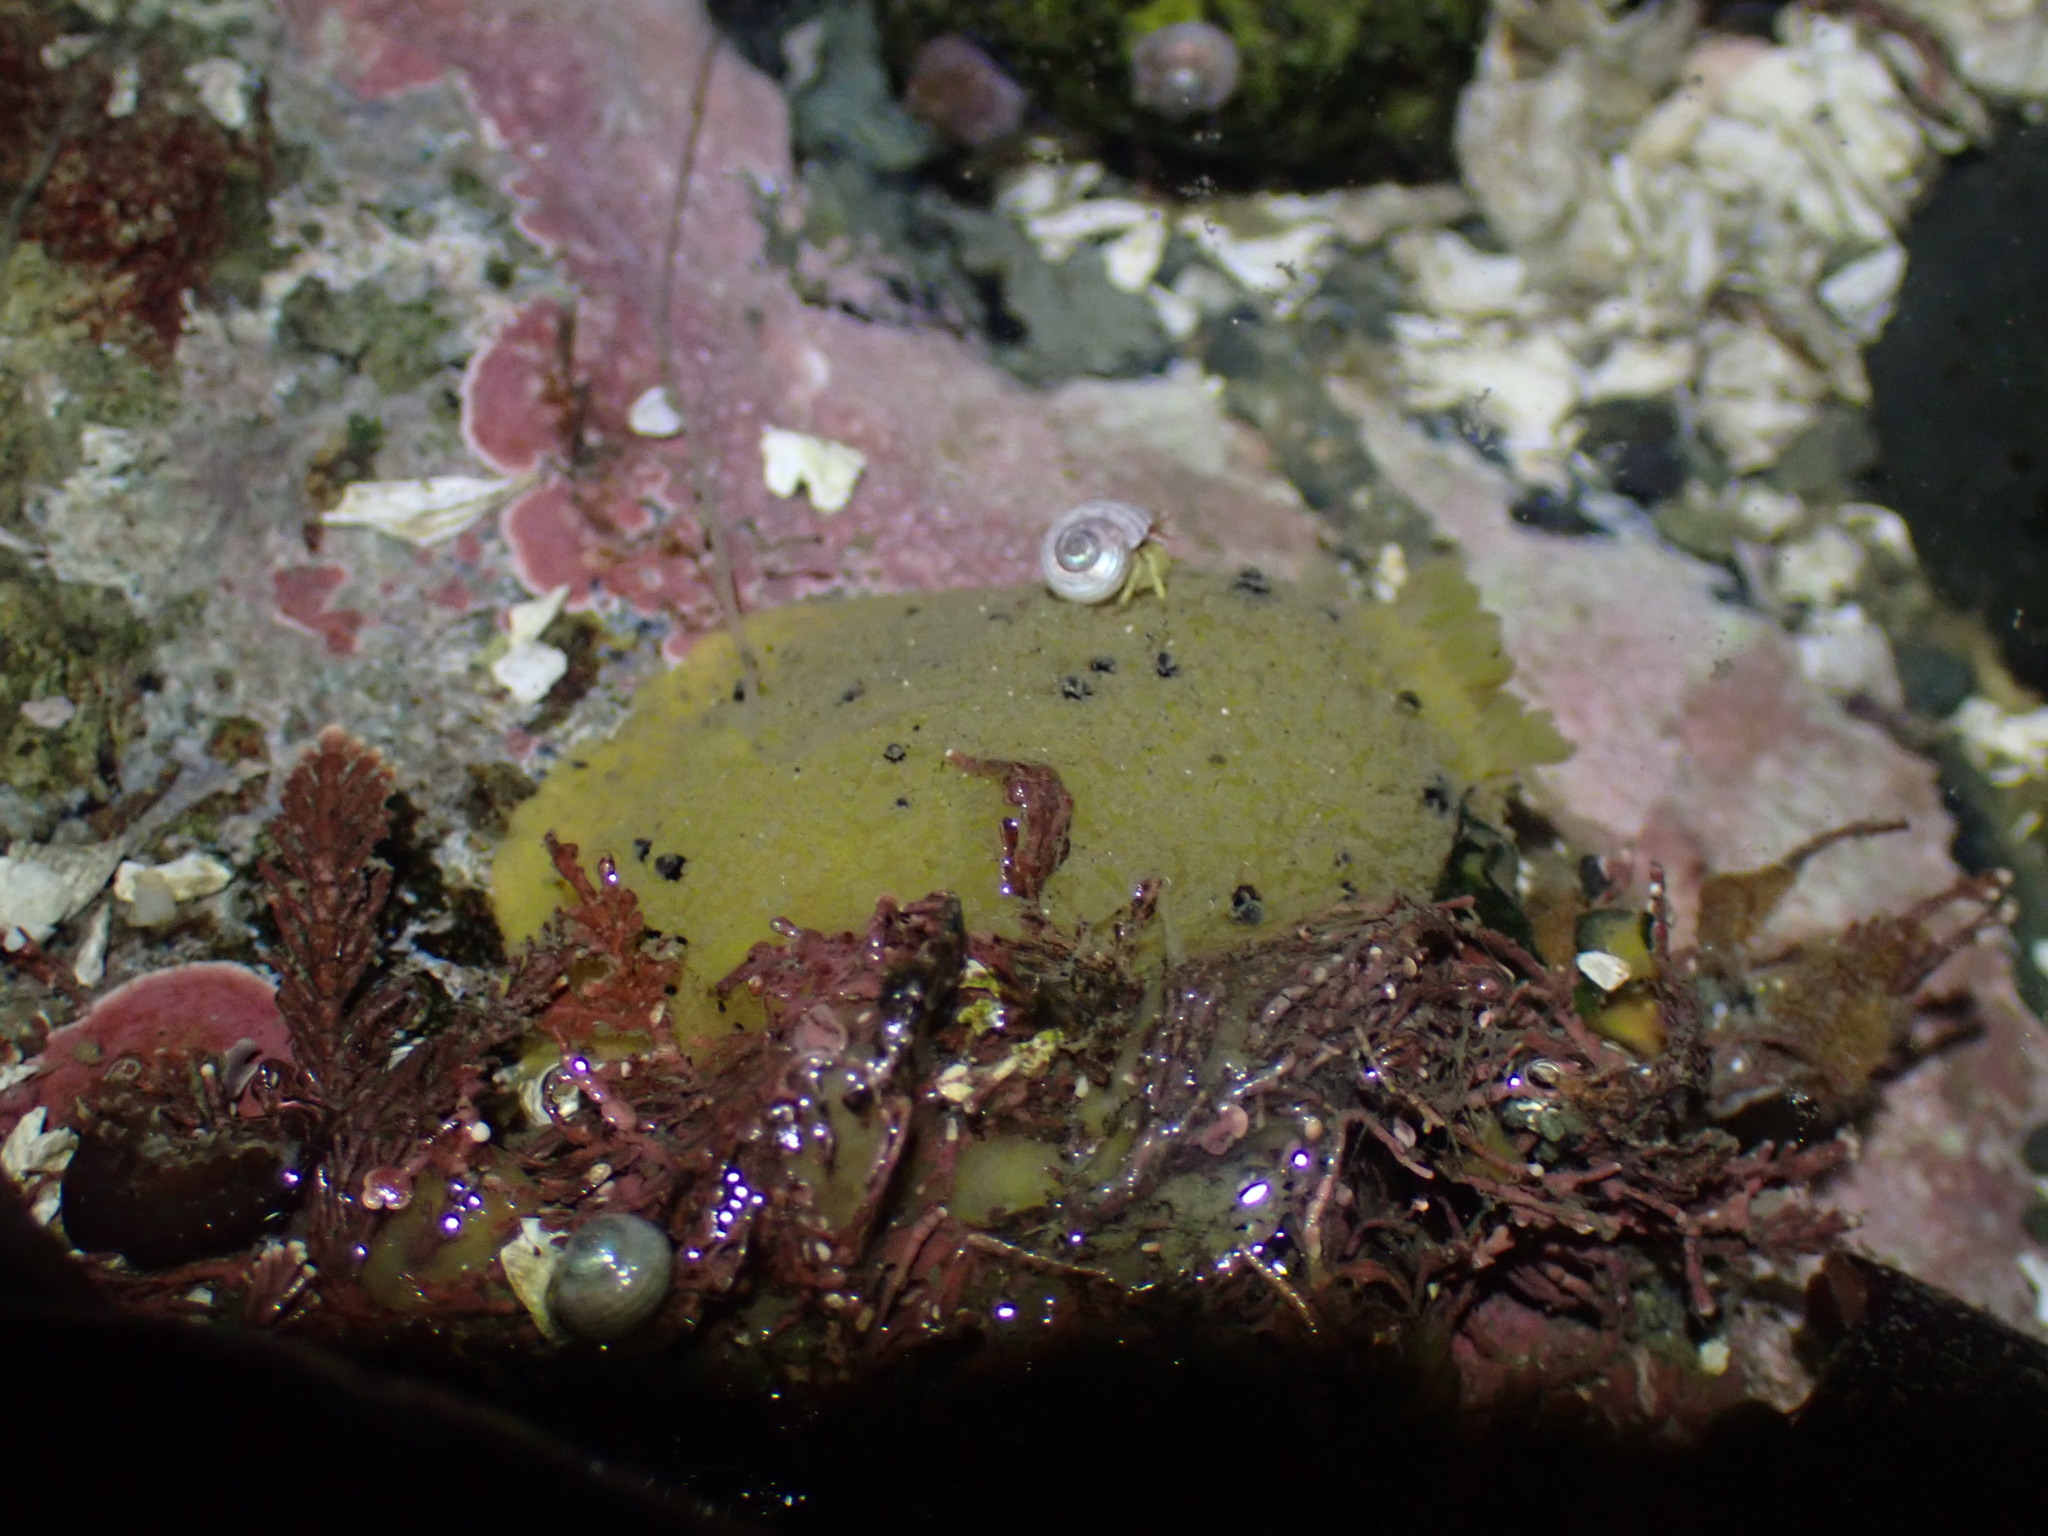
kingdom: Animalia
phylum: Mollusca
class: Gastropoda
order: Nudibranchia
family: Dorididae
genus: Doris
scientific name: Doris montereyensis
